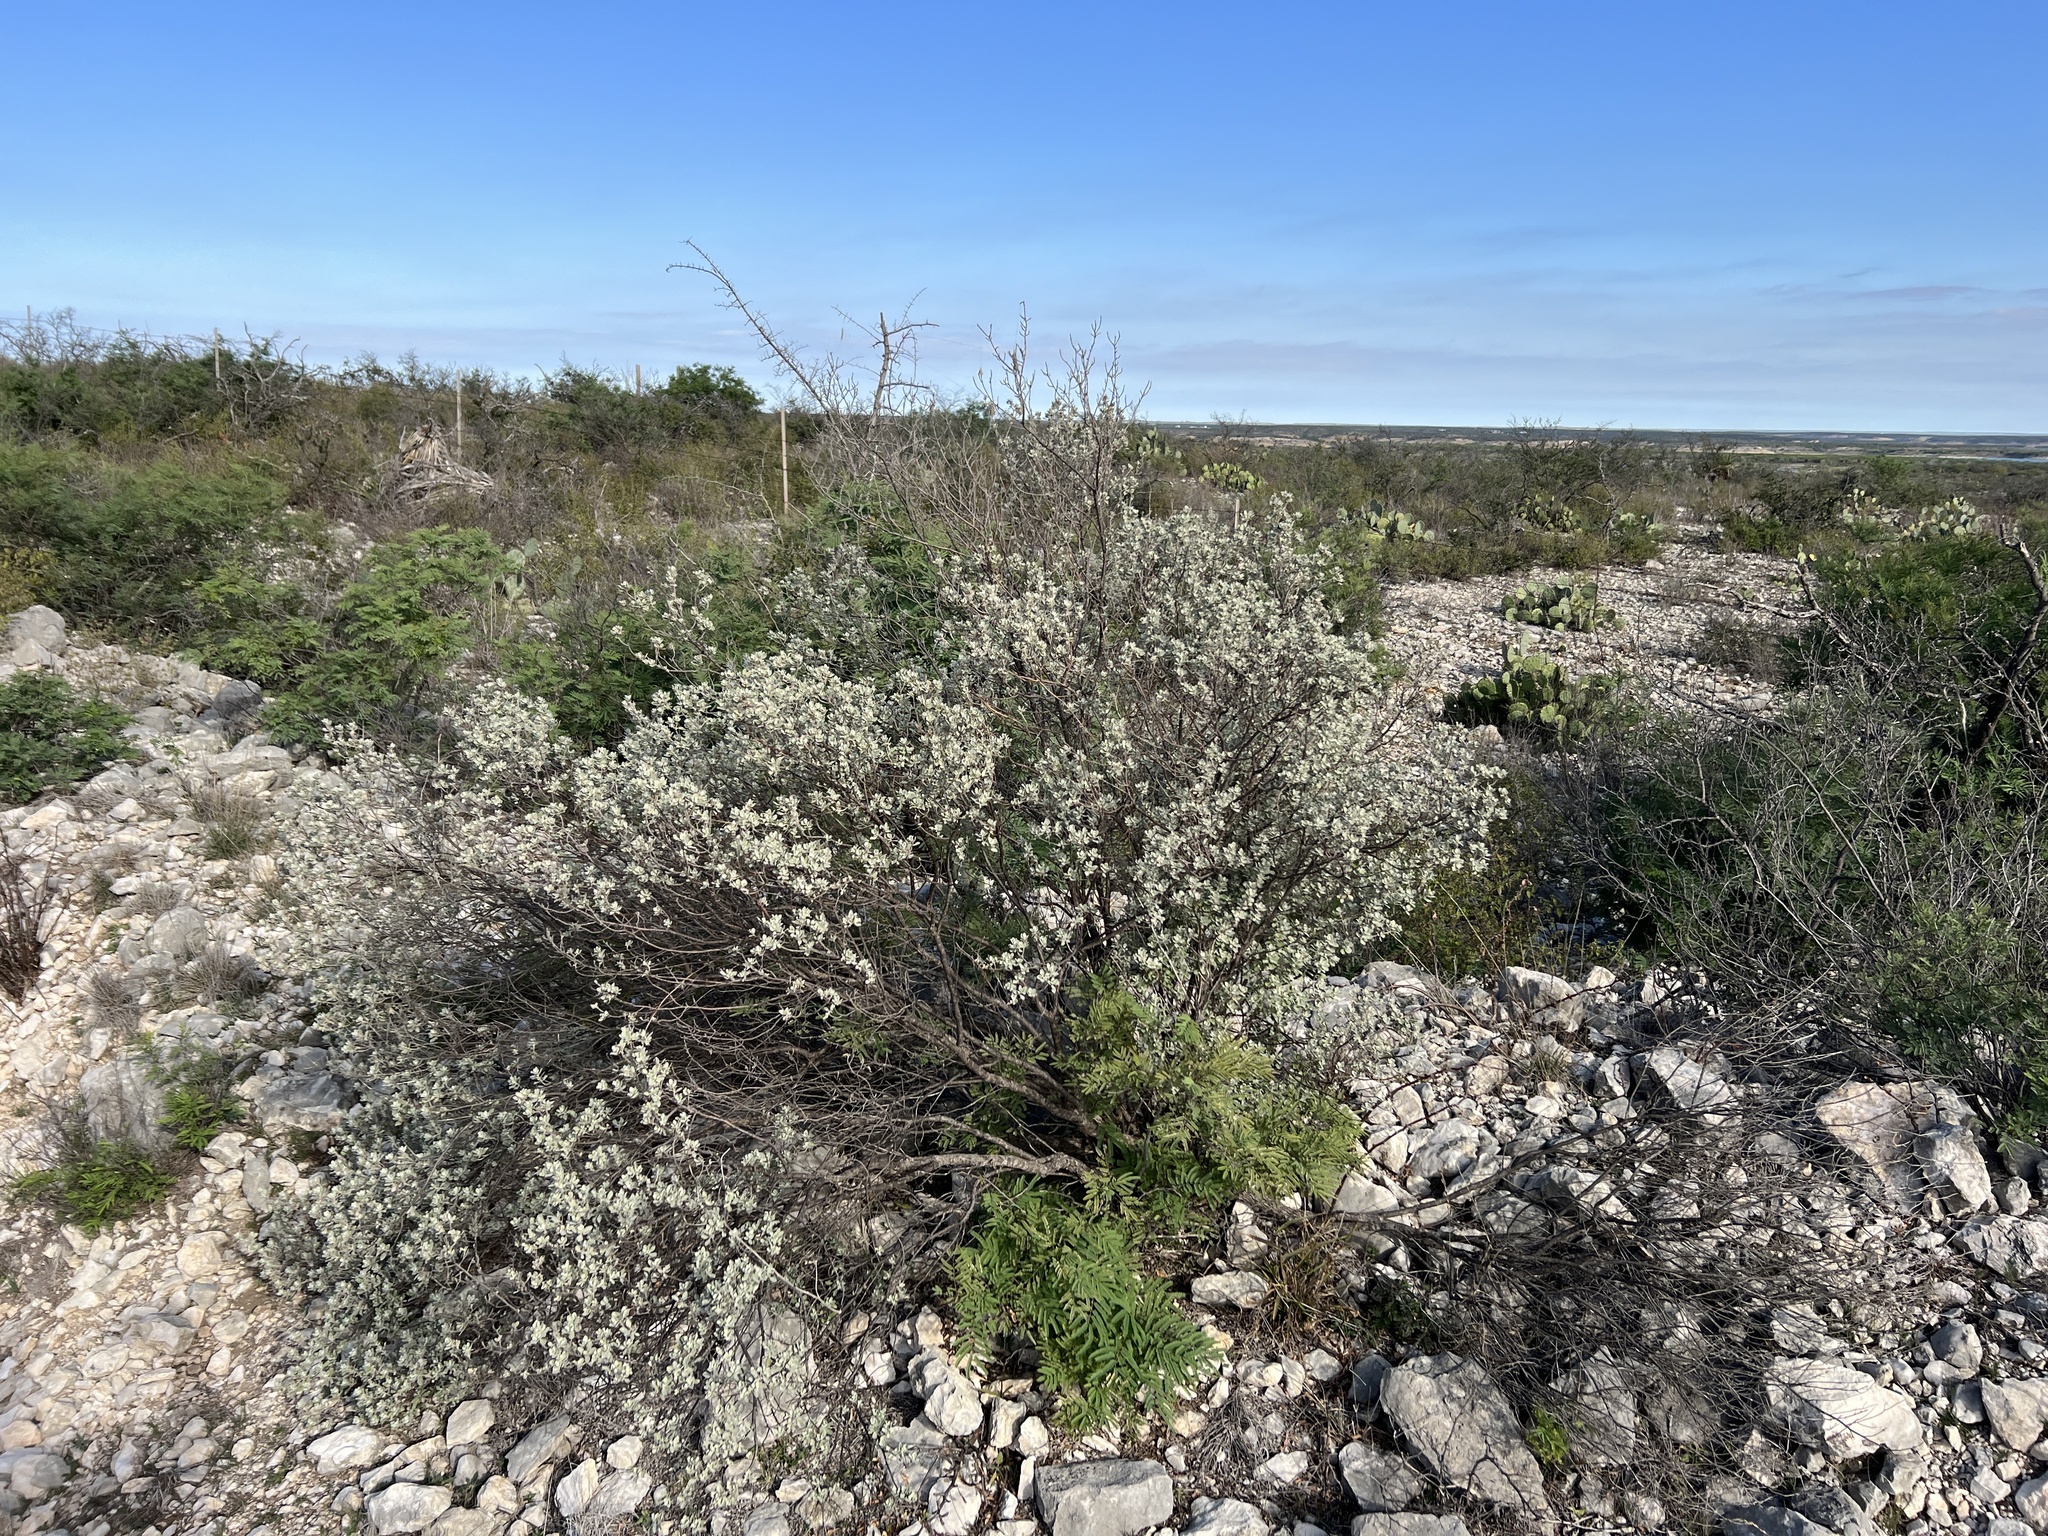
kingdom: Plantae
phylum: Tracheophyta
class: Magnoliopsida
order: Lamiales
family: Scrophulariaceae
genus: Leucophyllum
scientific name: Leucophyllum frutescens
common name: Texas silverleaf
